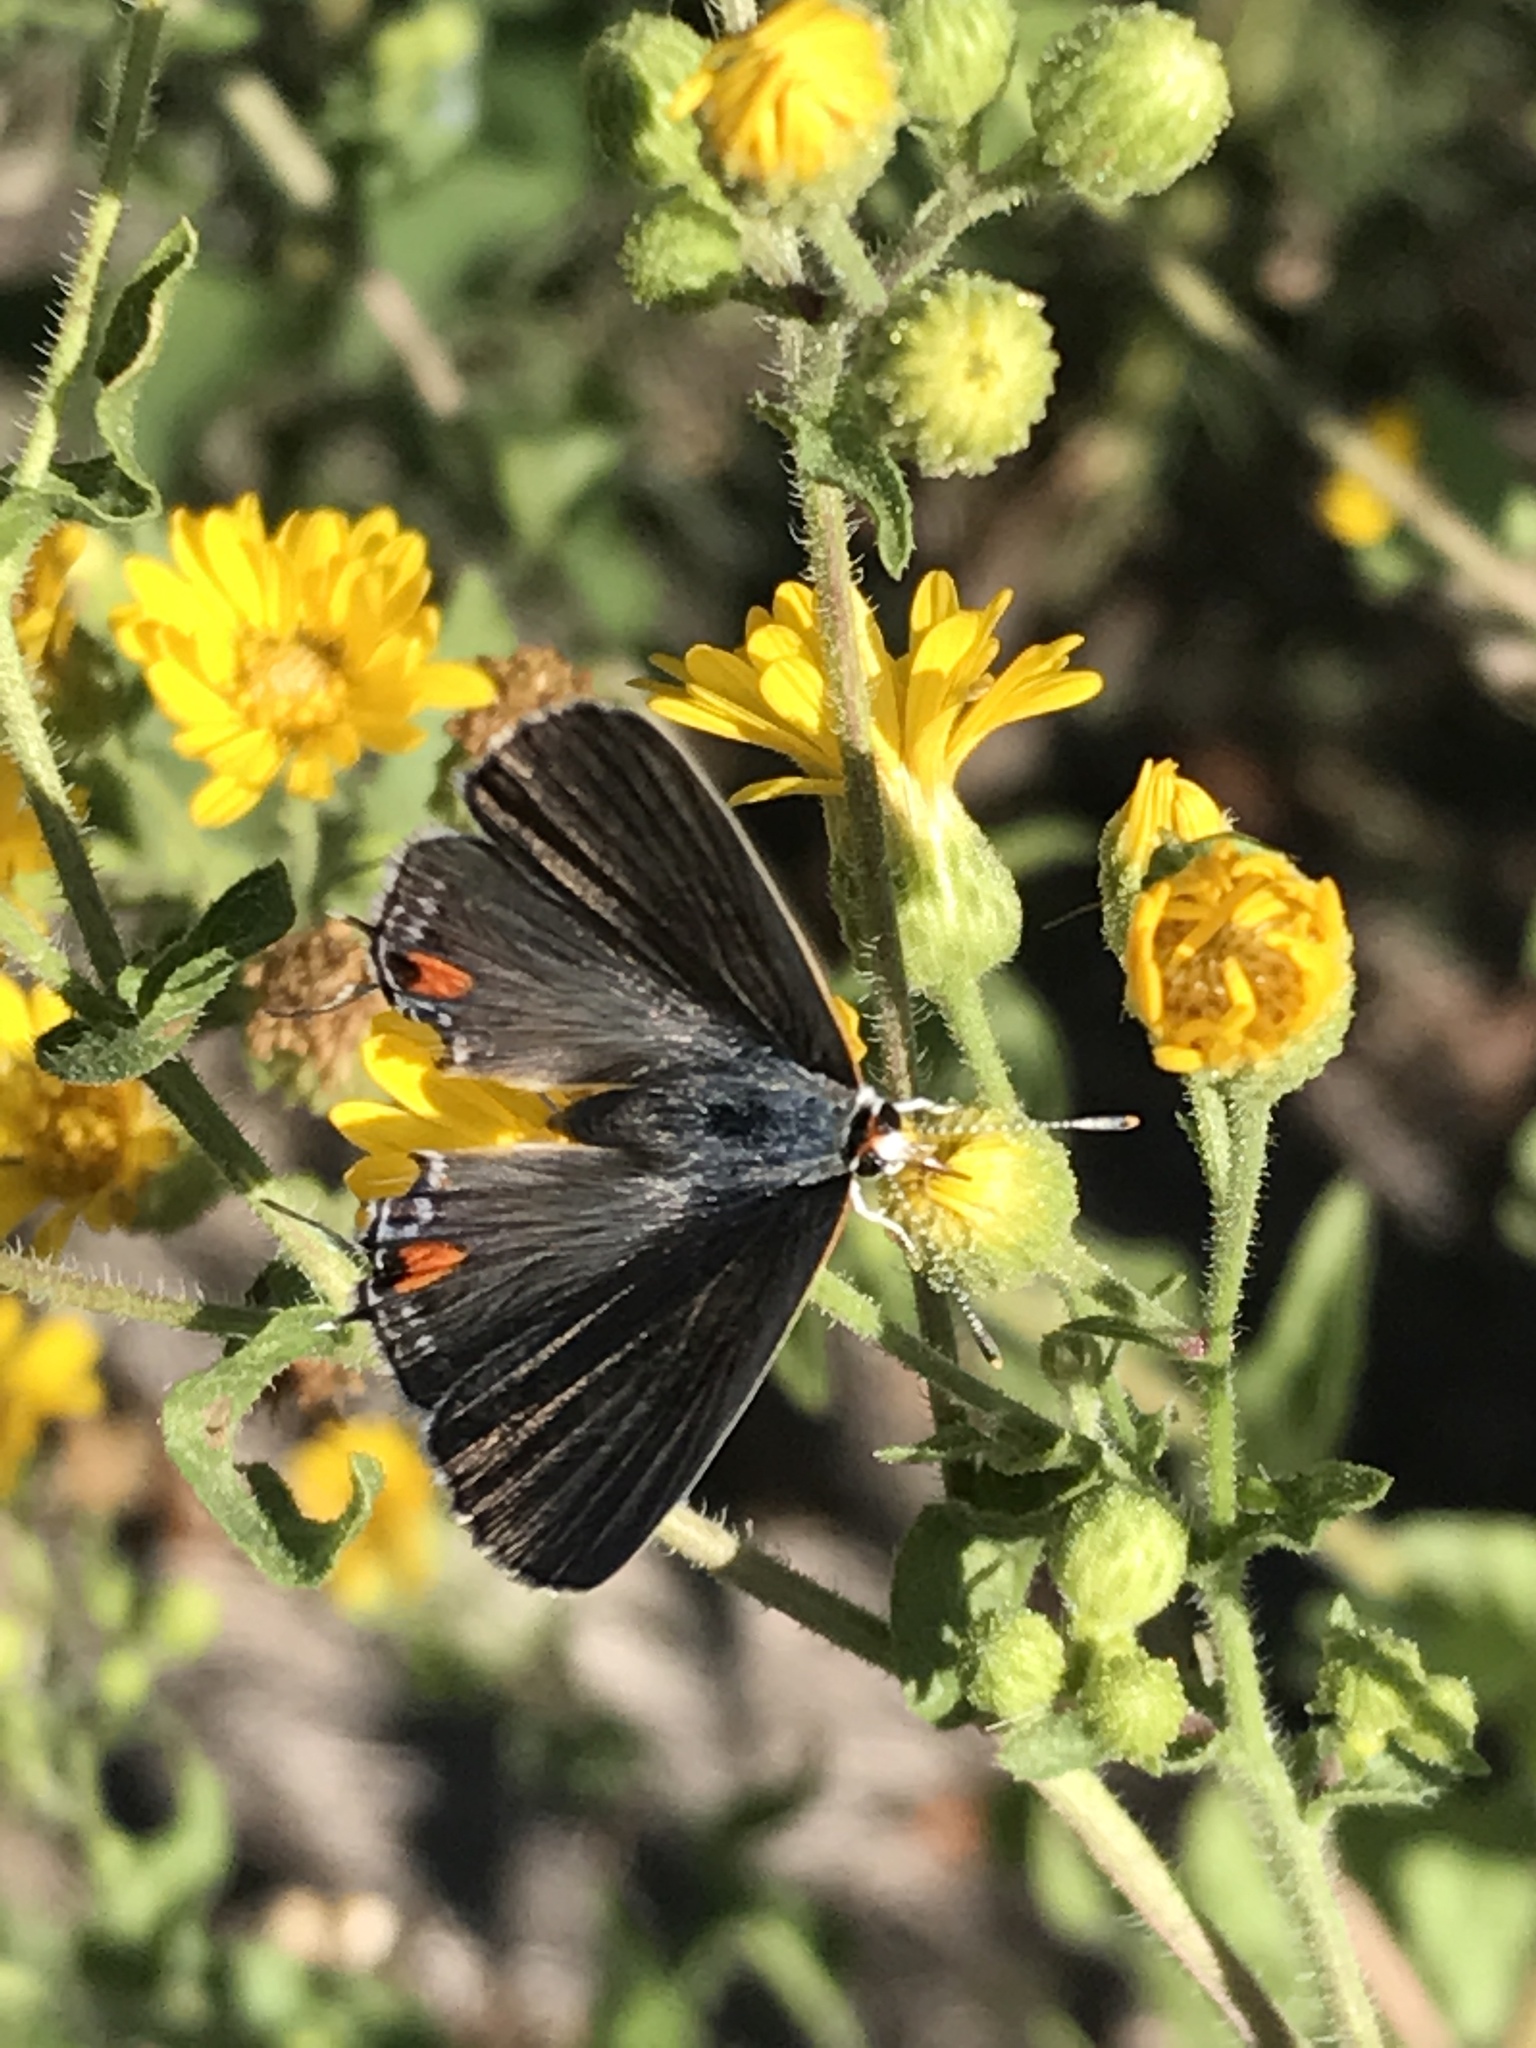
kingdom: Animalia
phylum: Arthropoda
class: Insecta
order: Lepidoptera
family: Lycaenidae
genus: Strymon
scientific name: Strymon melinus
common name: Gray hairstreak
